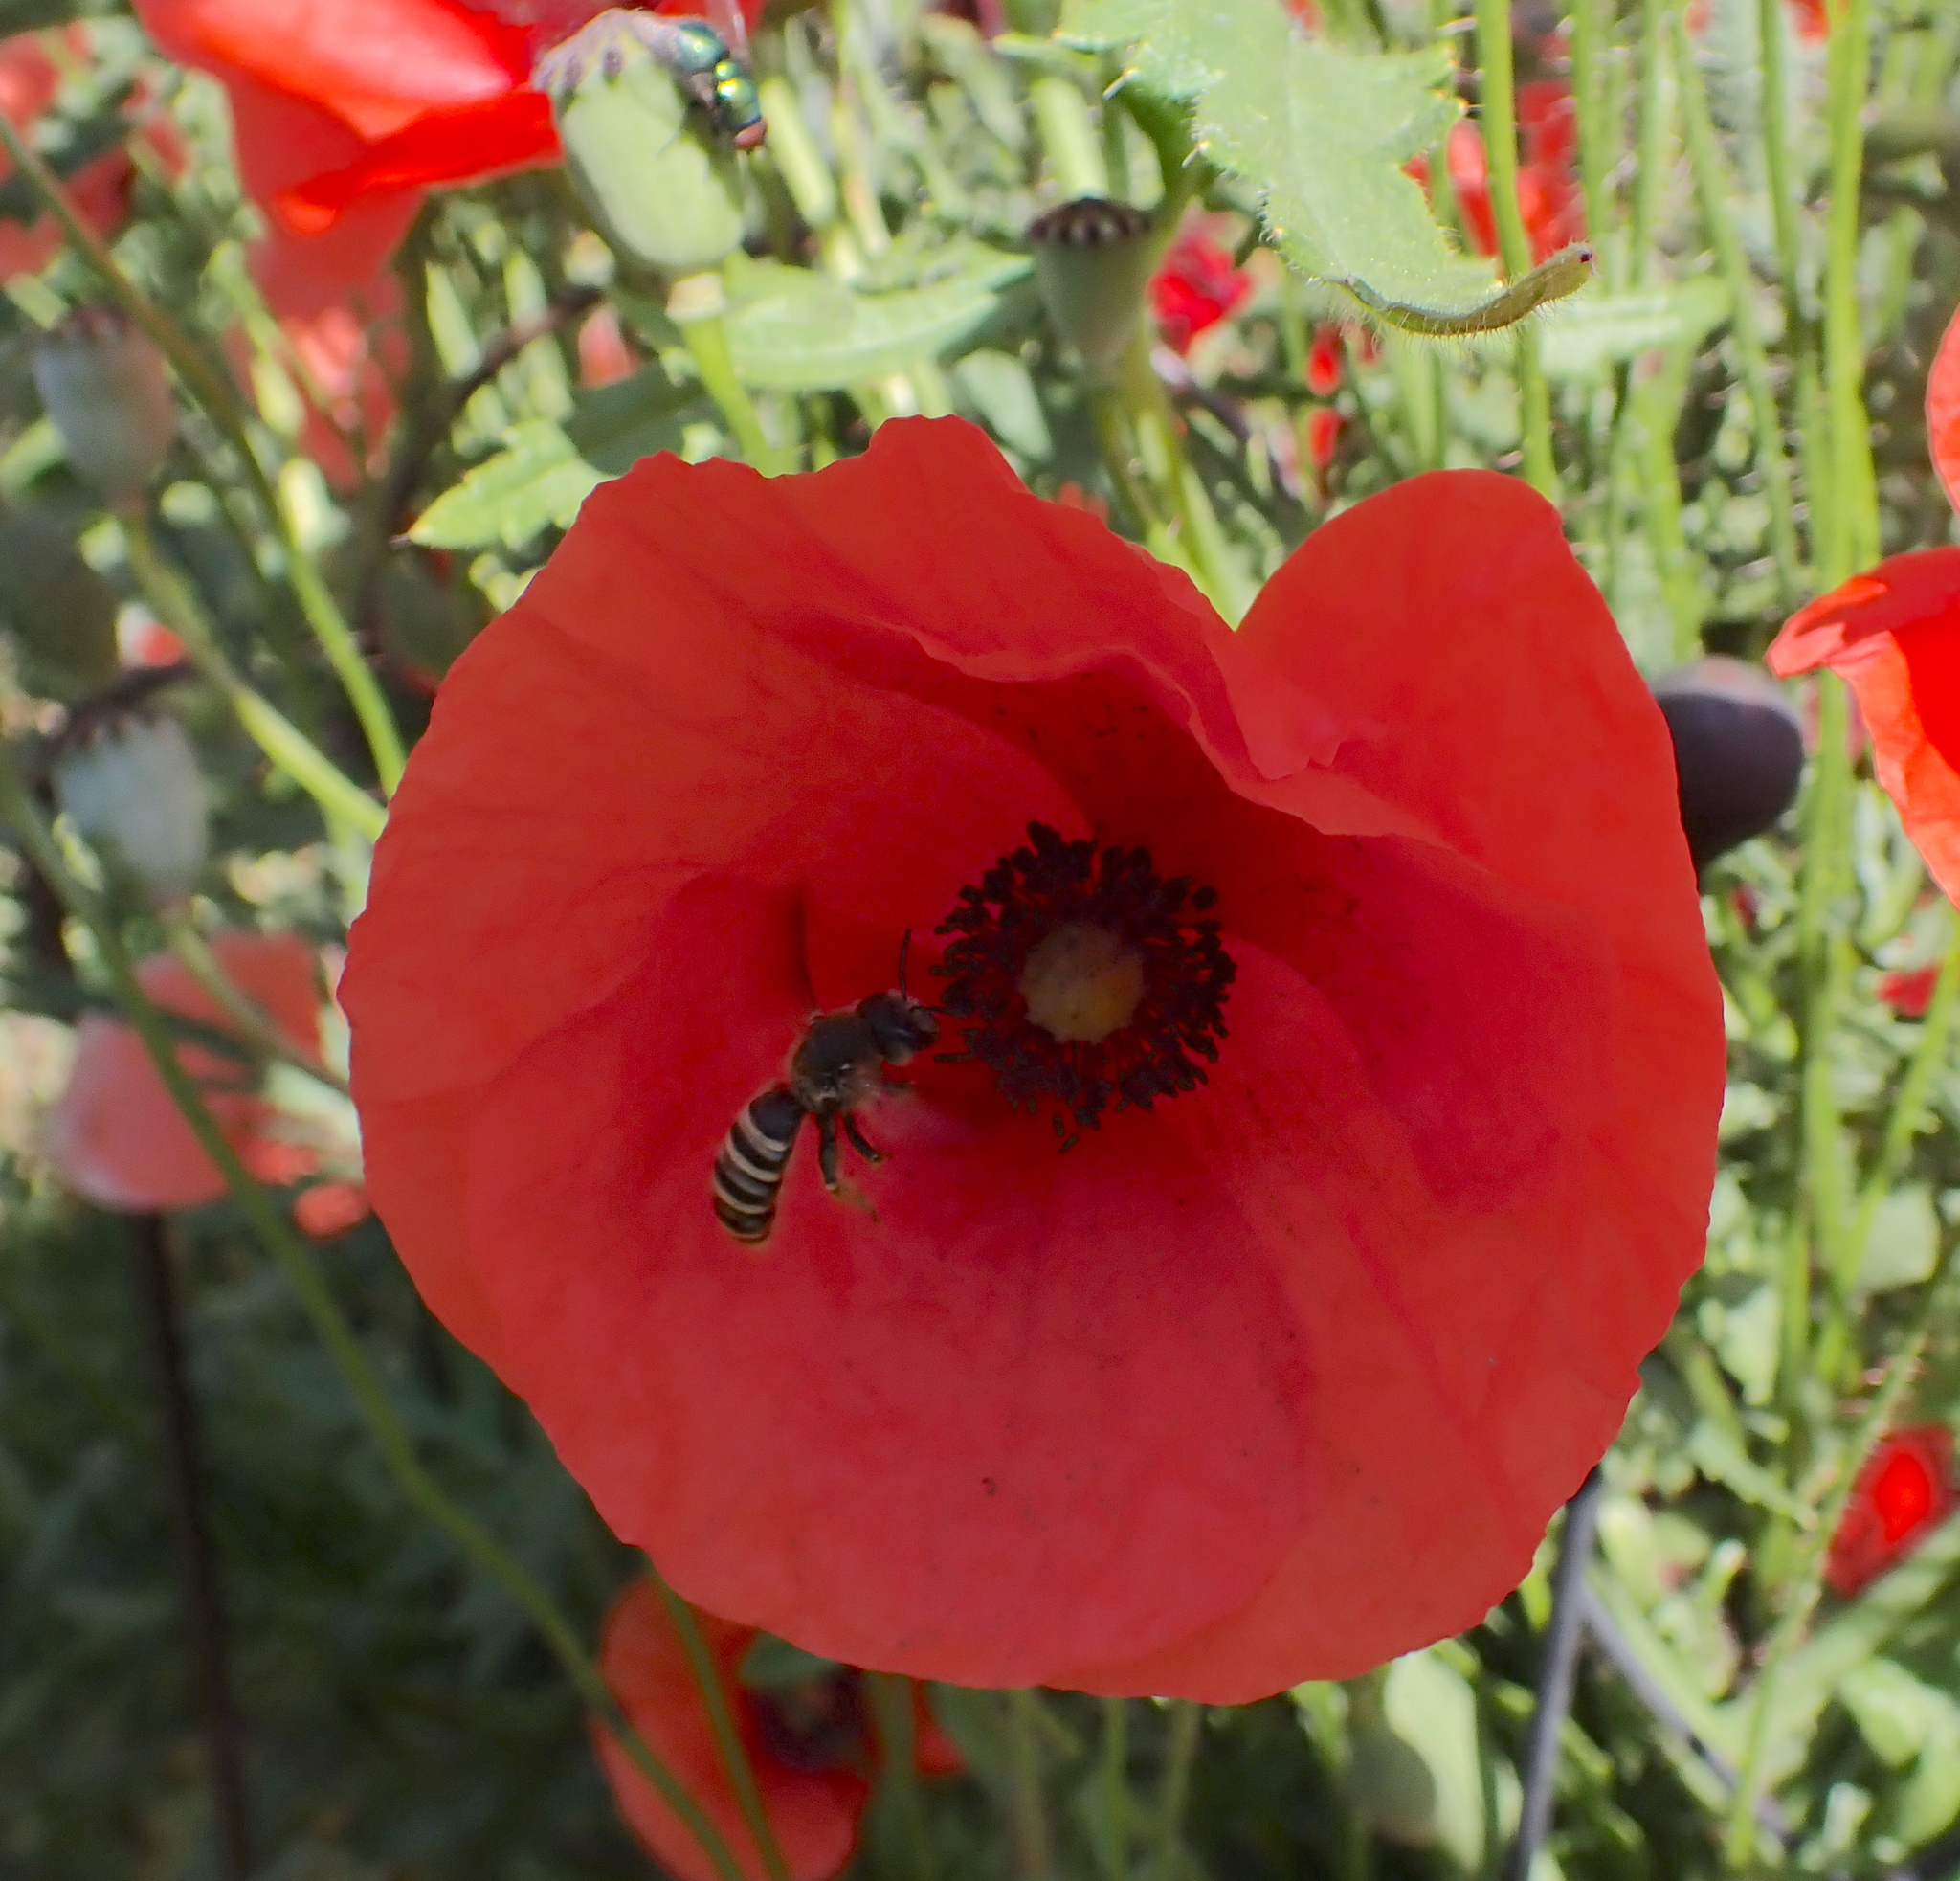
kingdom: Animalia
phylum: Arthropoda
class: Insecta
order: Hymenoptera
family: Halictidae
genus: Halictus
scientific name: Halictus scabiosae
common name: Great banded furrow bee
